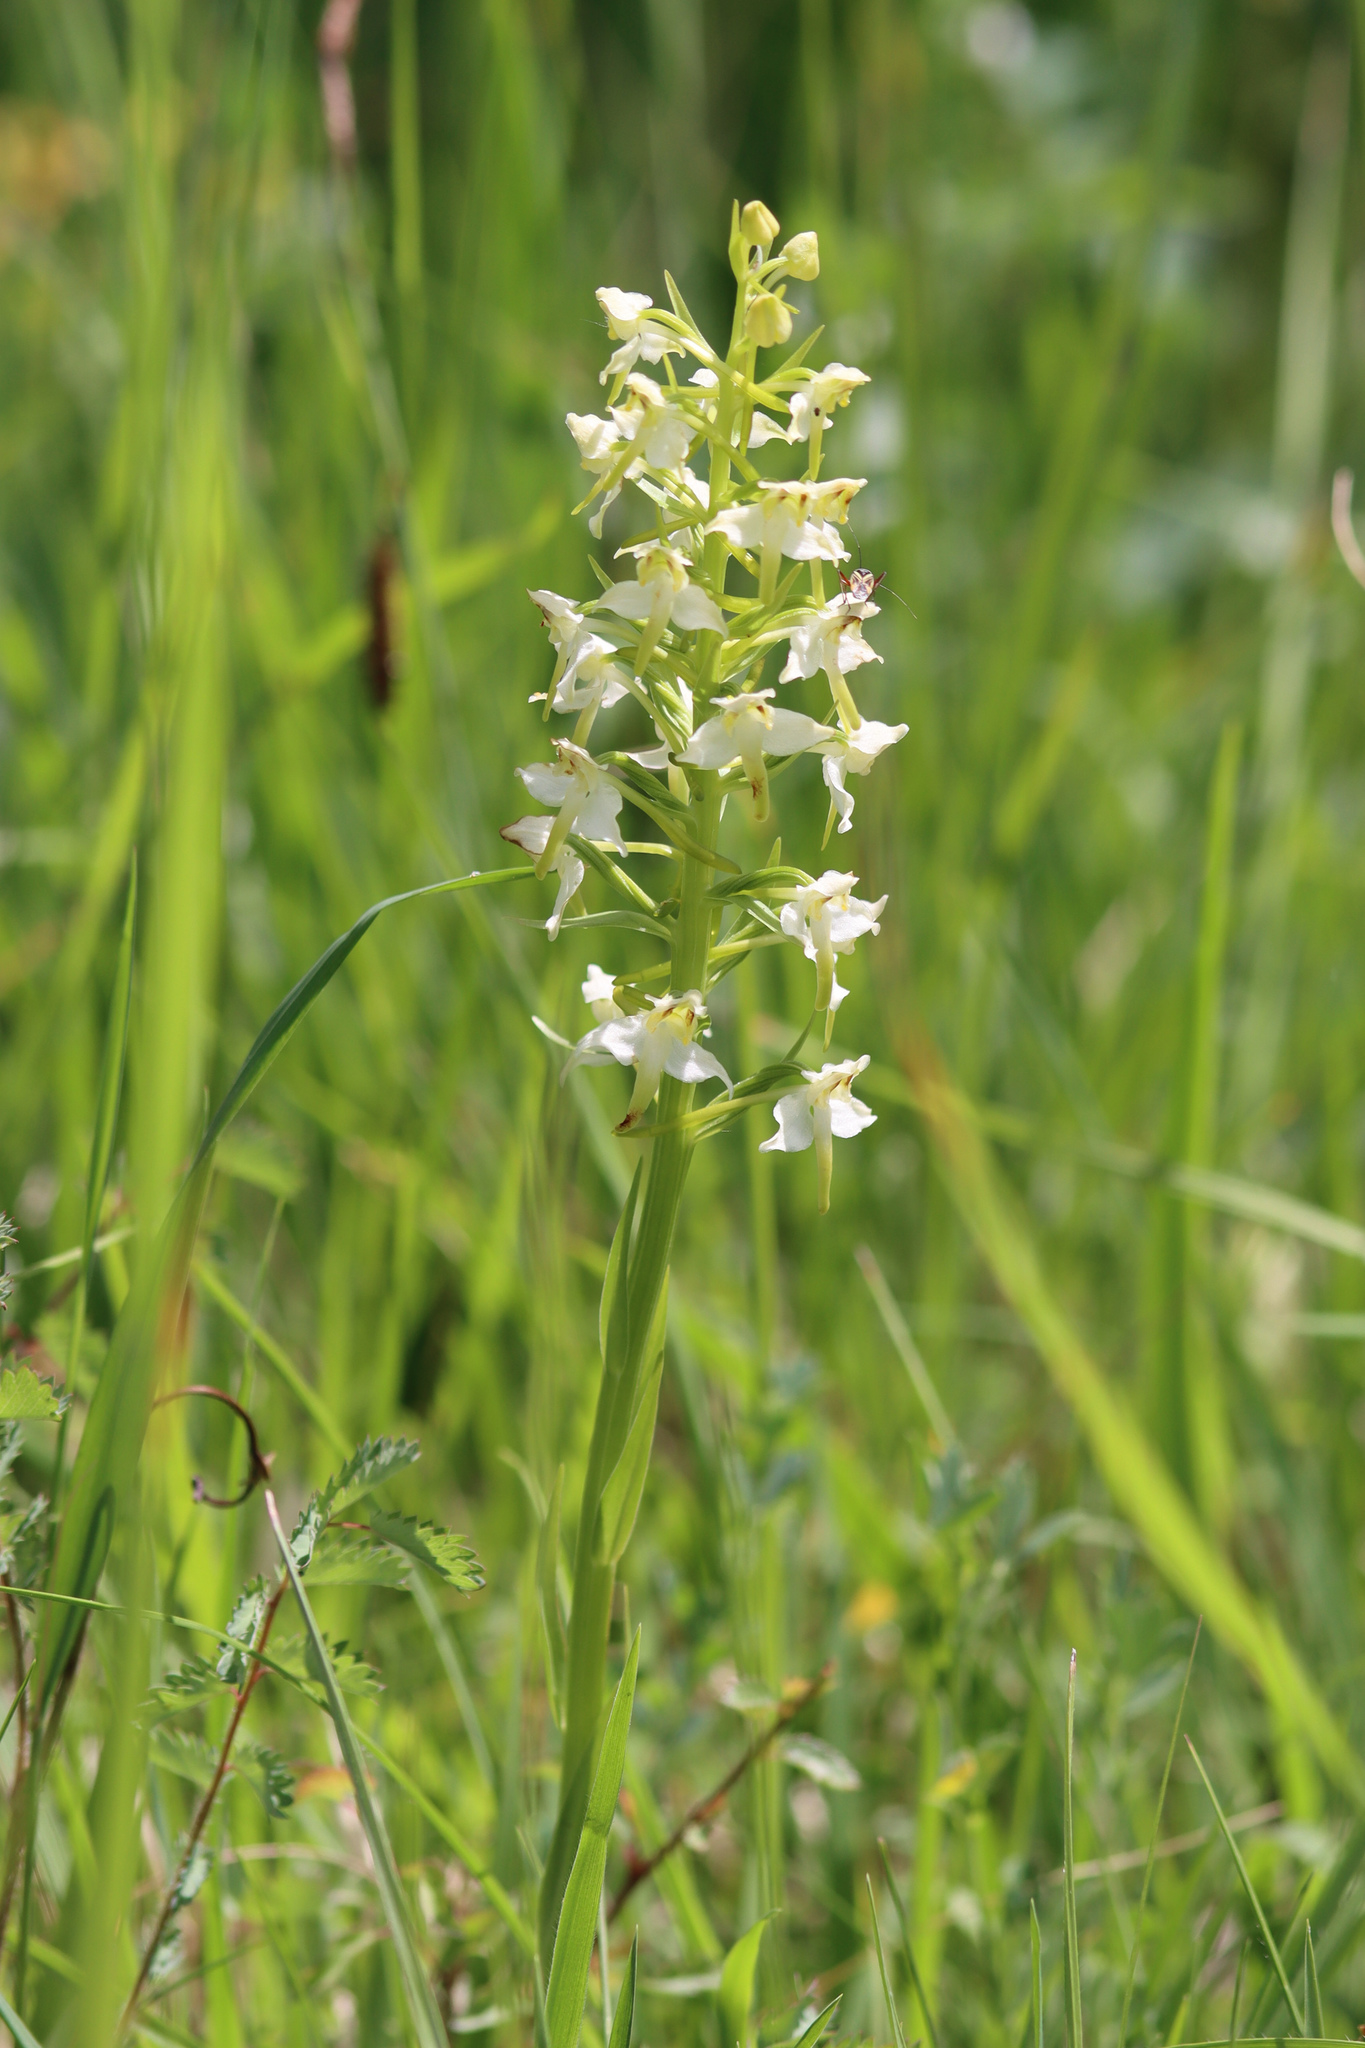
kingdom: Plantae
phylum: Tracheophyta
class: Liliopsida
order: Asparagales
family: Orchidaceae
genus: Platanthera
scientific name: Platanthera chlorantha
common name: Greater butterfly-orchid
